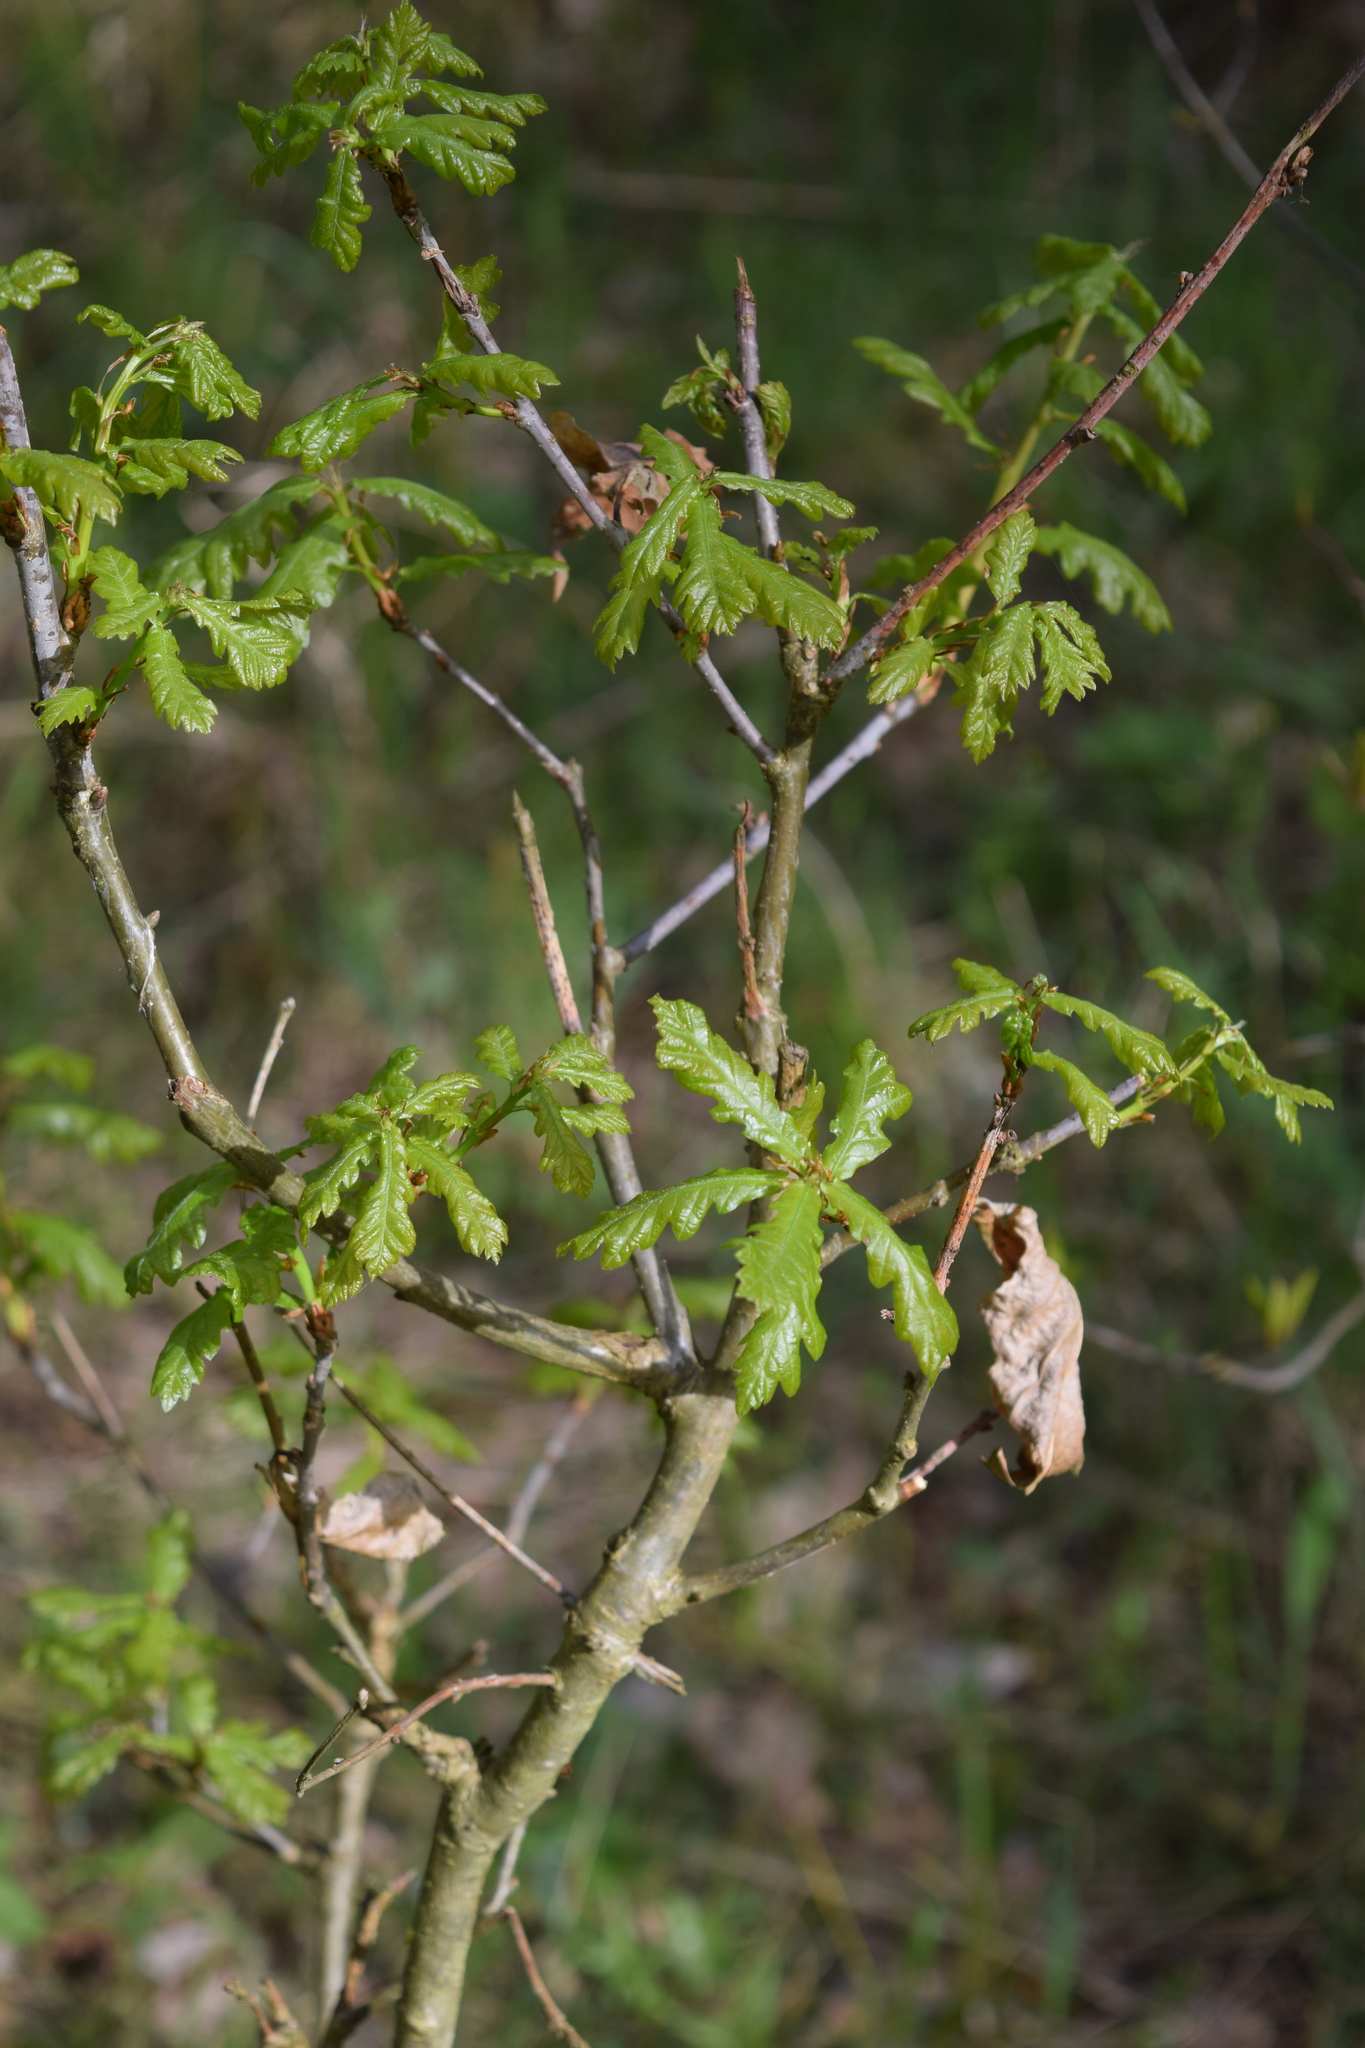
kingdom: Plantae
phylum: Tracheophyta
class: Magnoliopsida
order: Fagales
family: Fagaceae
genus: Quercus
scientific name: Quercus robur
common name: Pedunculate oak
